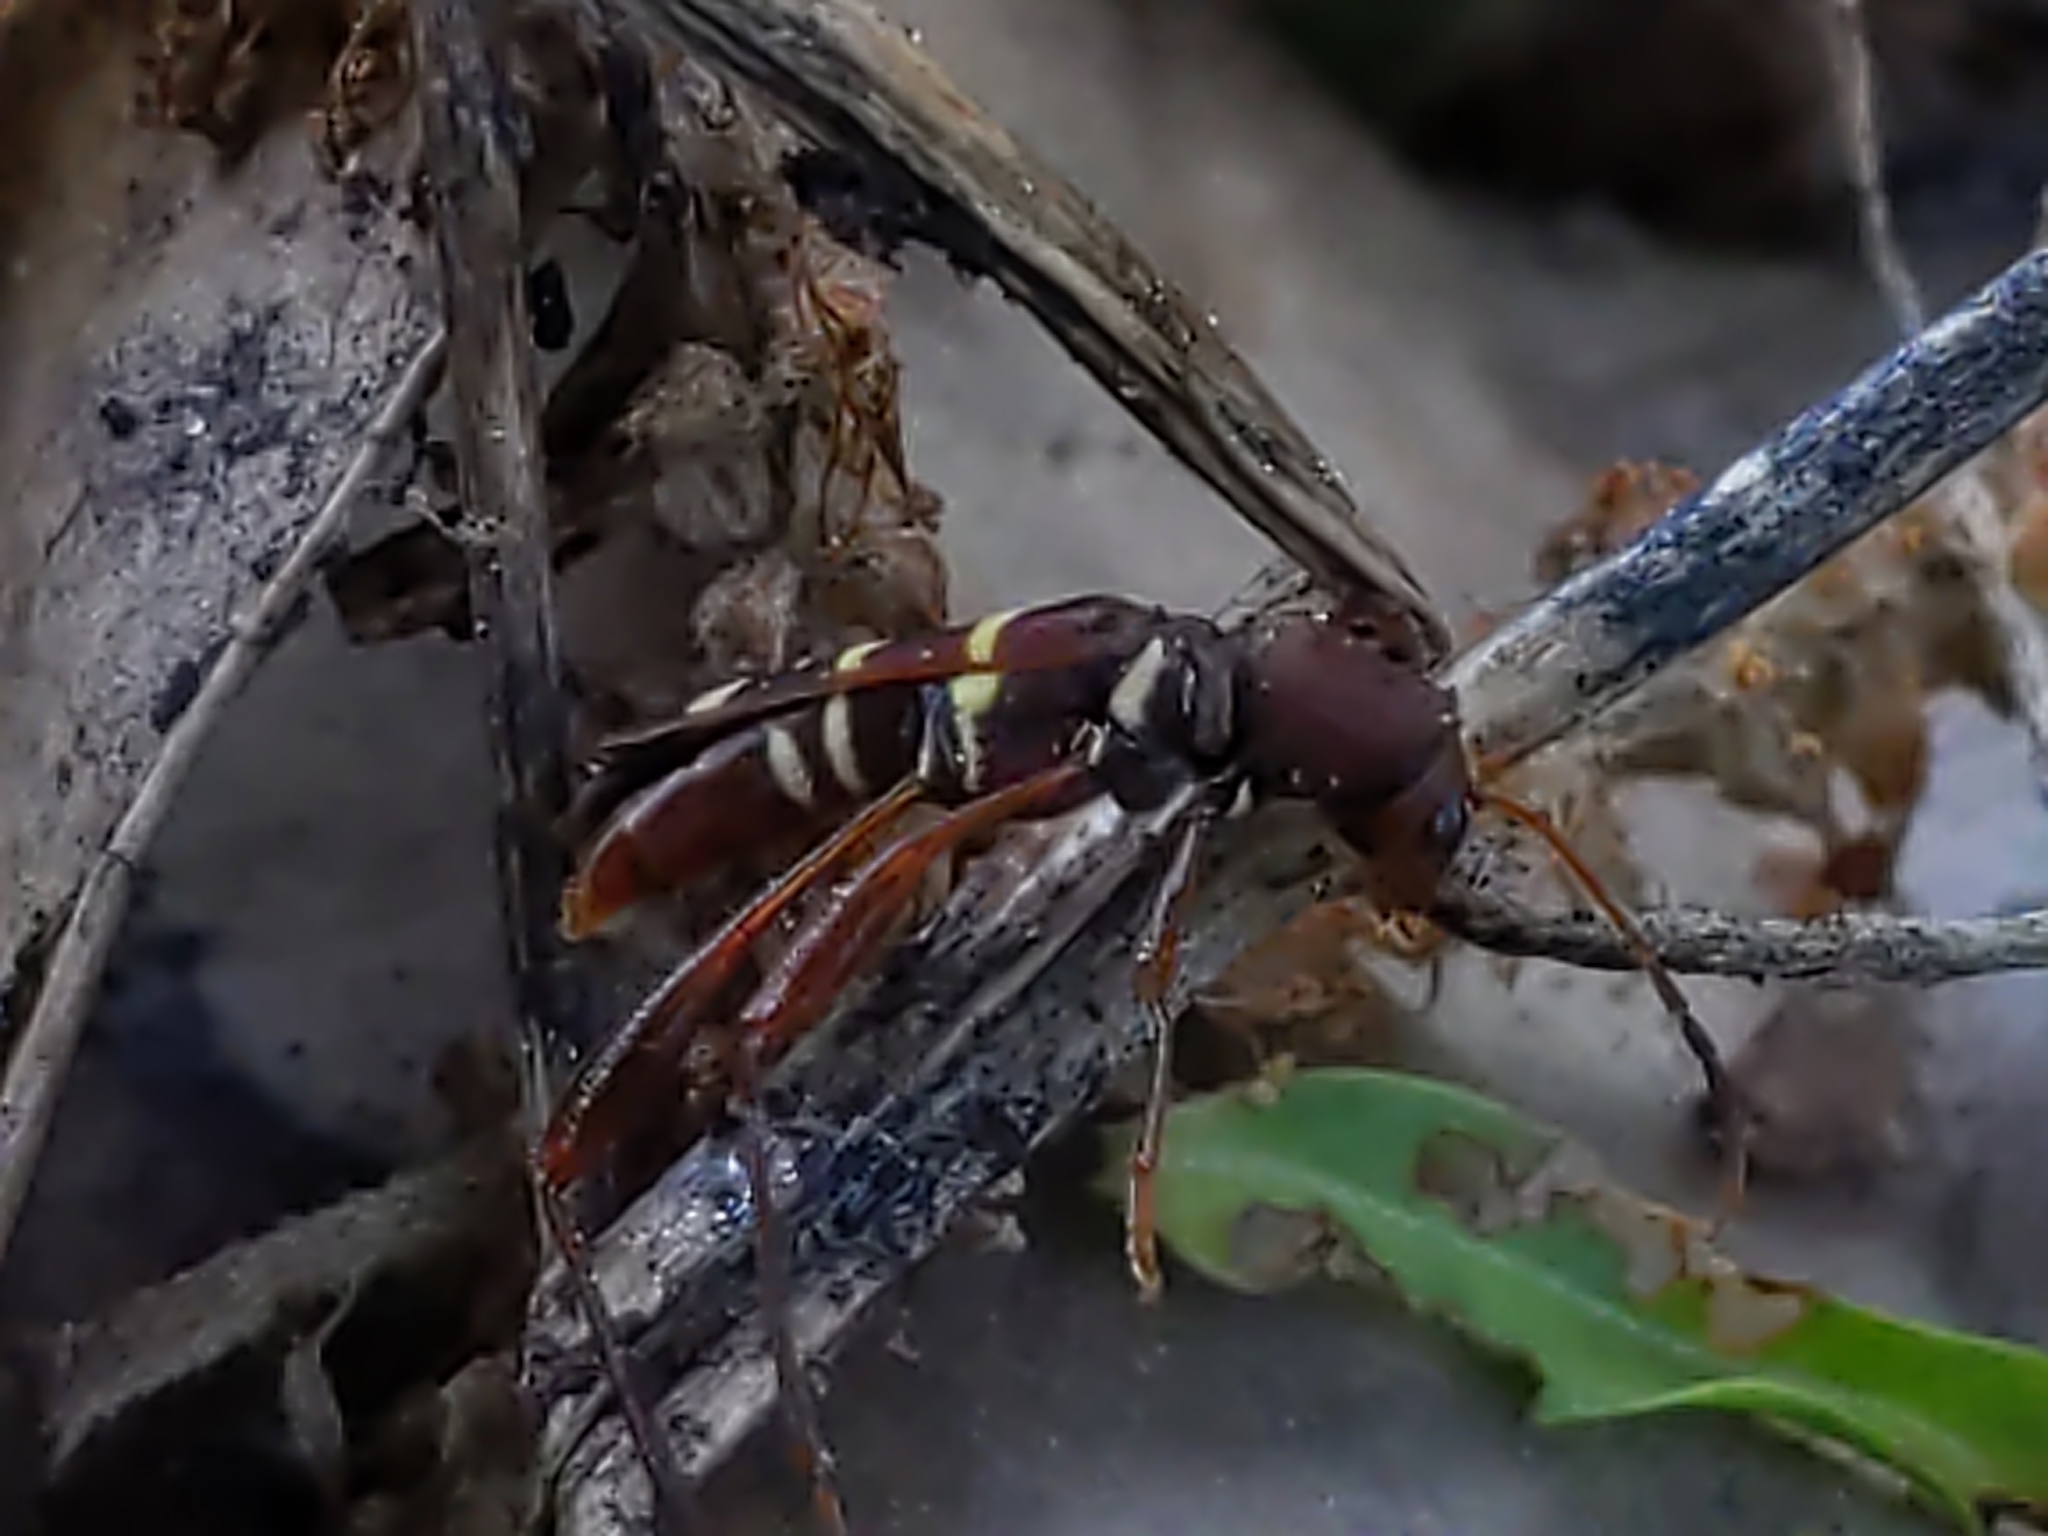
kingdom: Animalia
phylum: Arthropoda
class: Insecta
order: Coleoptera
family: Cerambycidae
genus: Neoclytus
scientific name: Neoclytus acuminatus
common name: Read-headed ash borer
